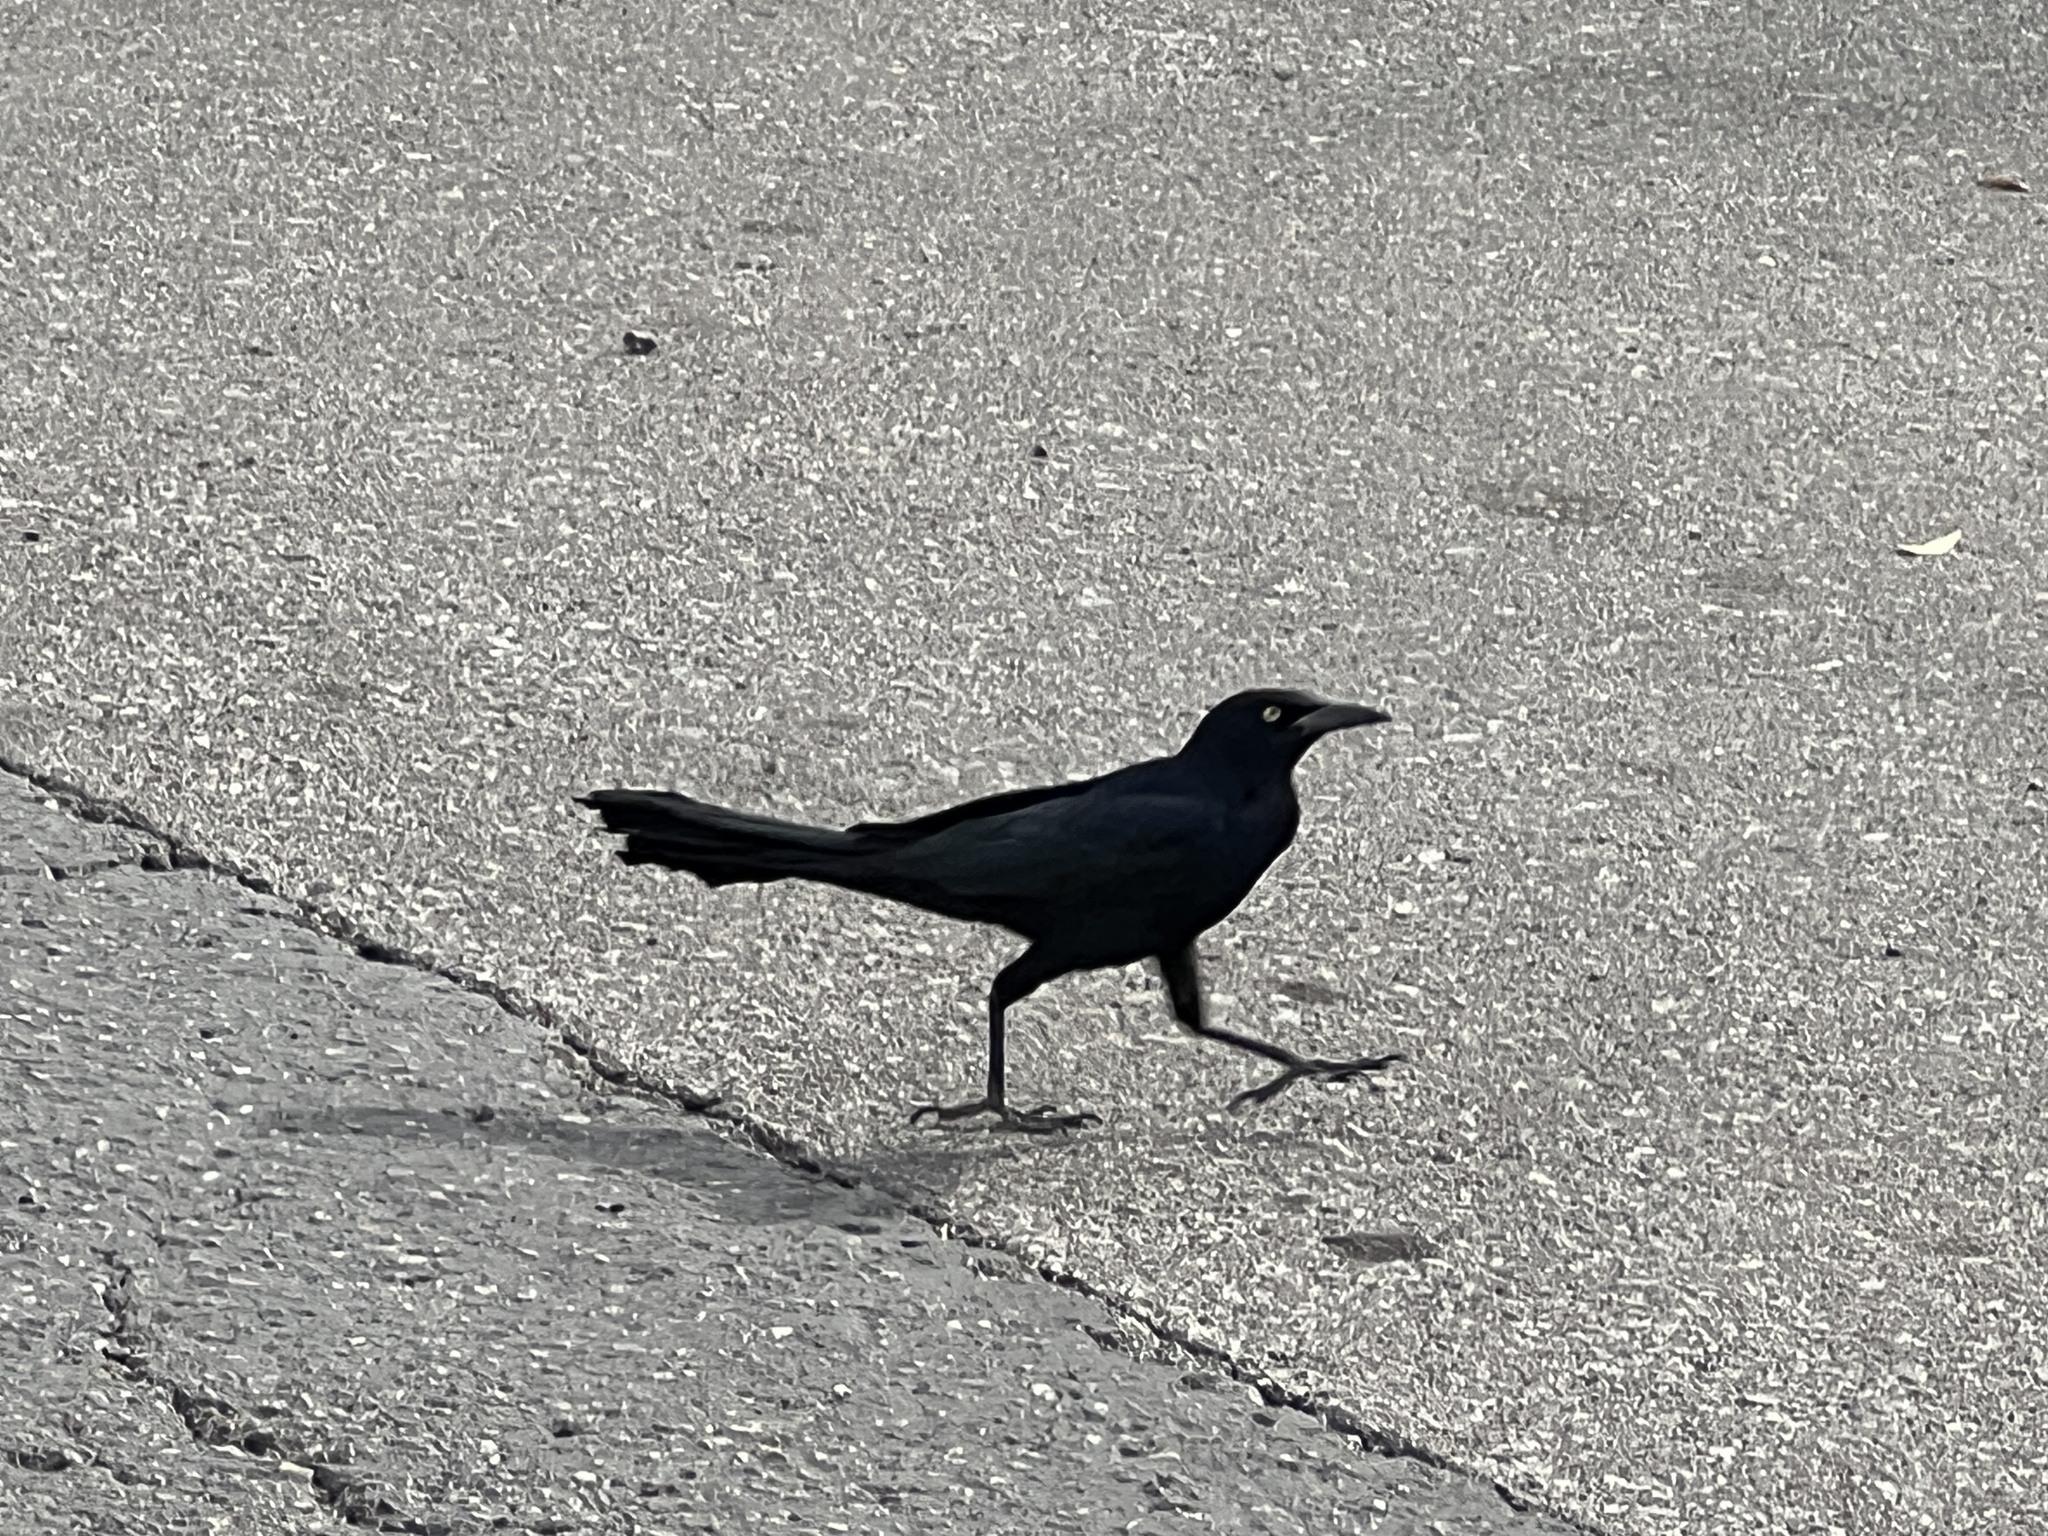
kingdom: Animalia
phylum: Chordata
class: Aves
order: Passeriformes
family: Icteridae
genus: Quiscalus
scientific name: Quiscalus mexicanus
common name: Great-tailed grackle
